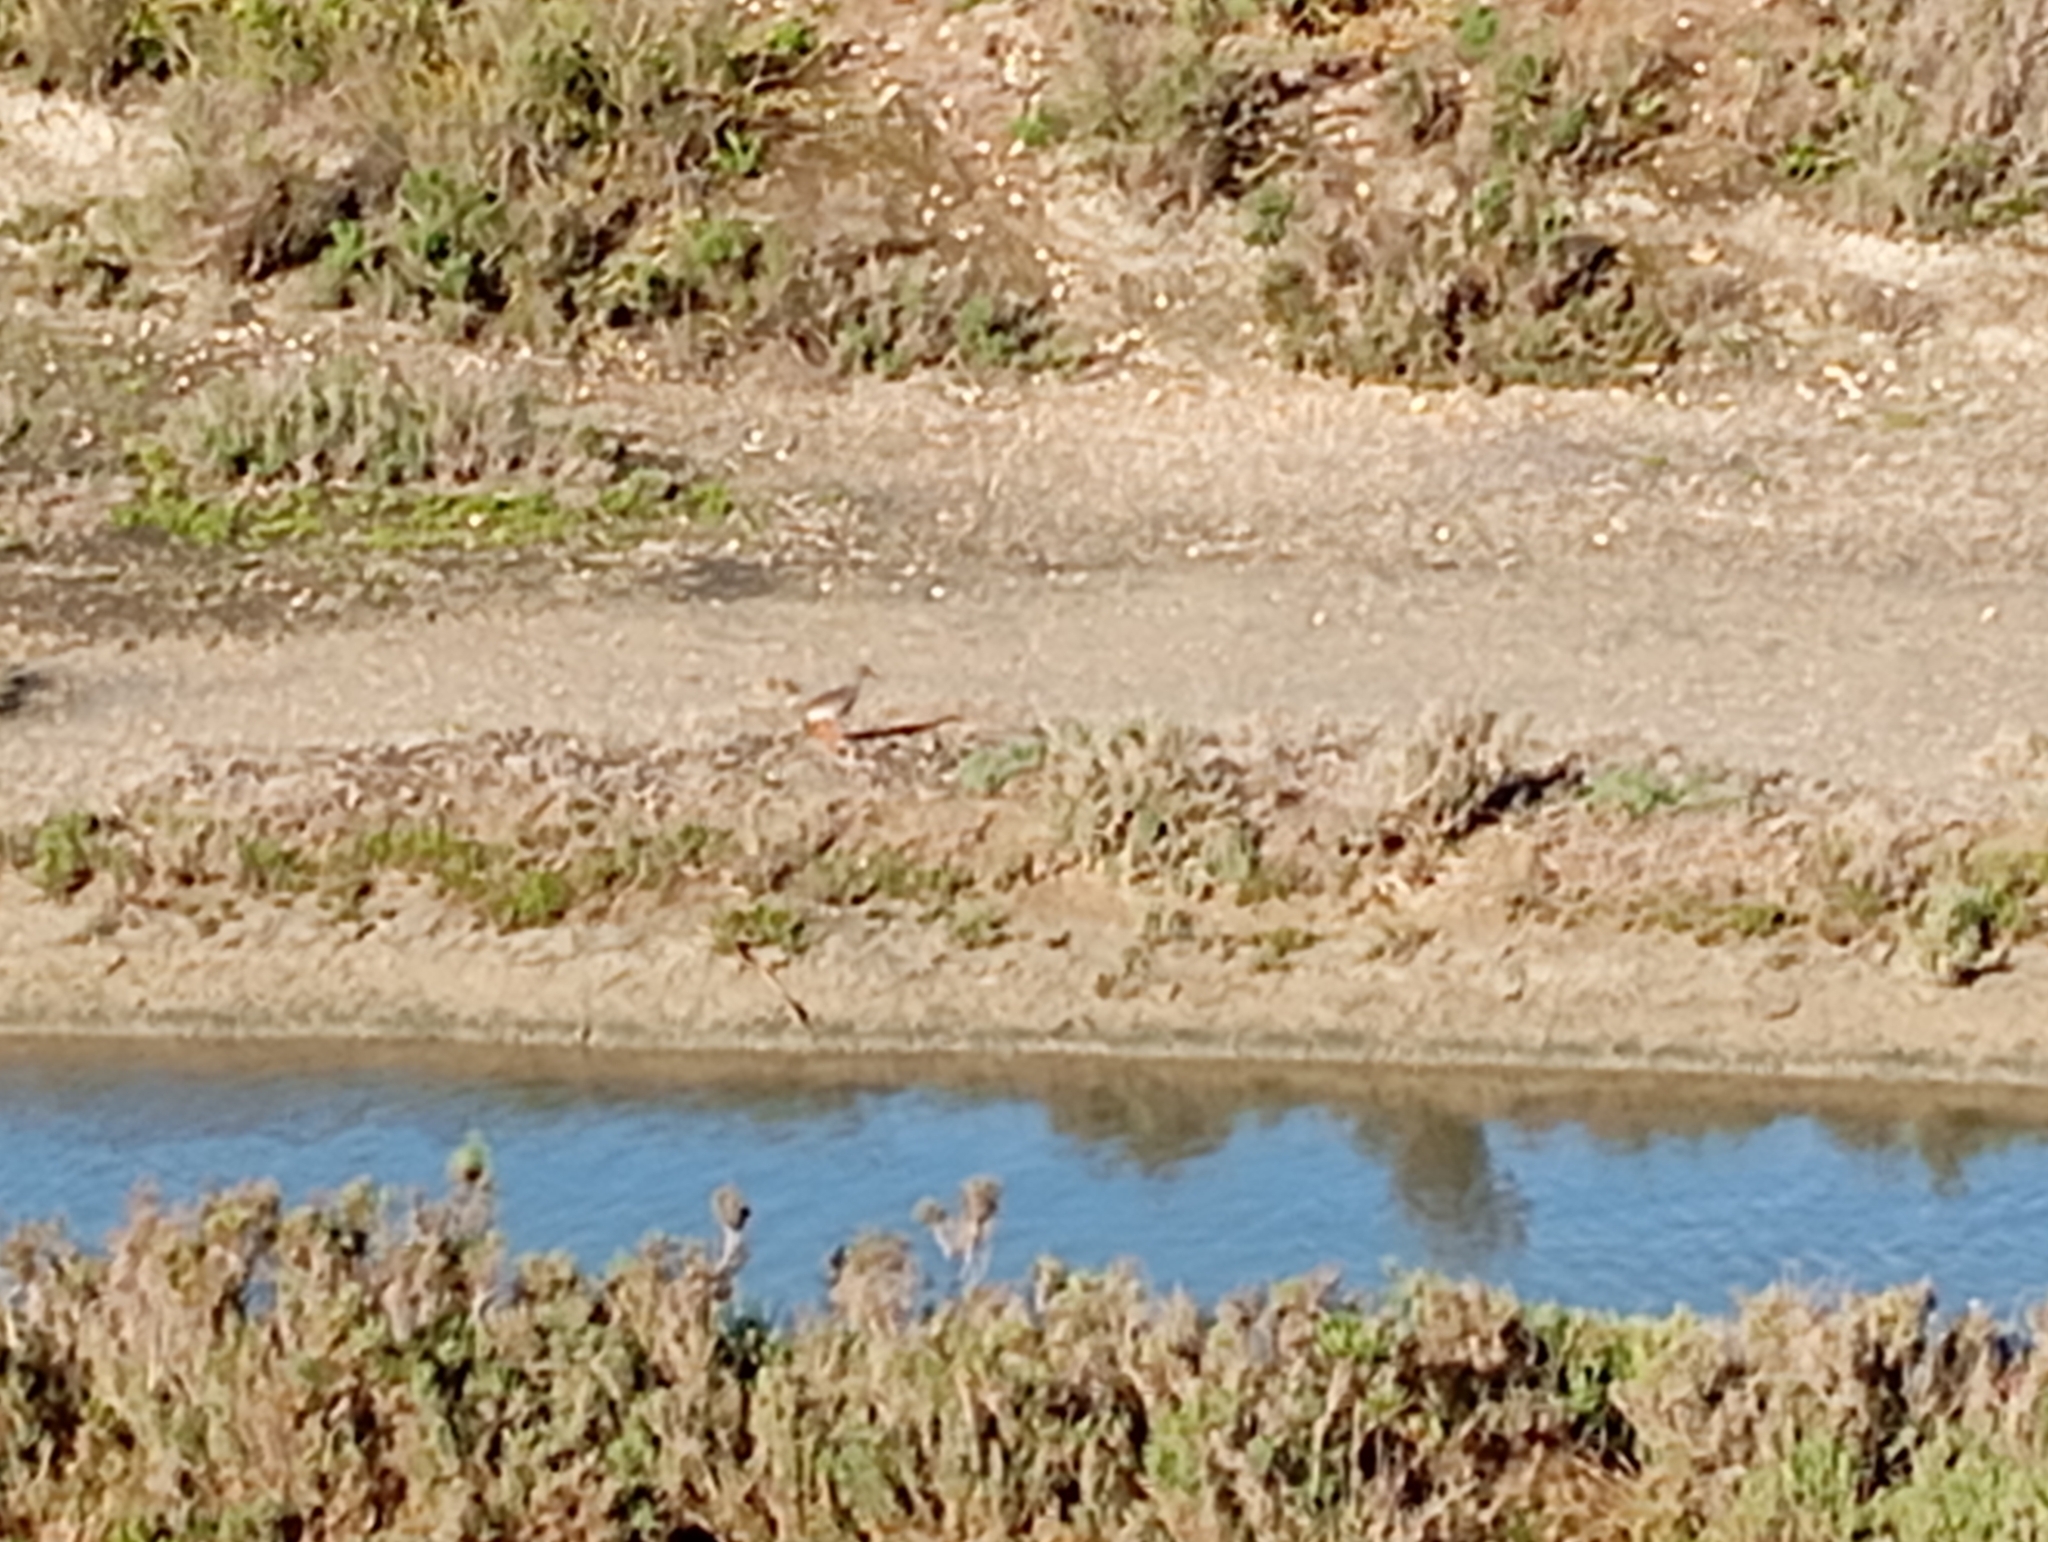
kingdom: Animalia
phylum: Chordata
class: Aves
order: Charadriiformes
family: Scolopacidae
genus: Tringa
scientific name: Tringa totanus
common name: Common redshank
